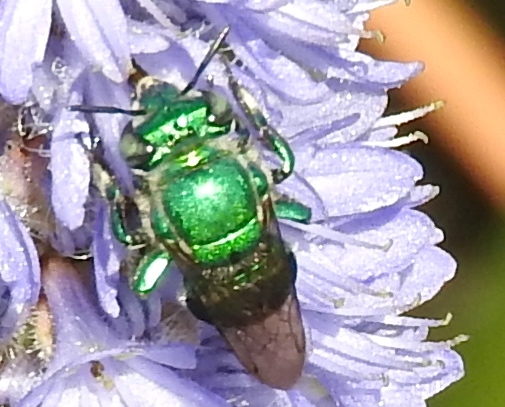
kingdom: Animalia
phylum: Arthropoda
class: Insecta
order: Hymenoptera
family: Apidae
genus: Euglossa
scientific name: Euglossa
